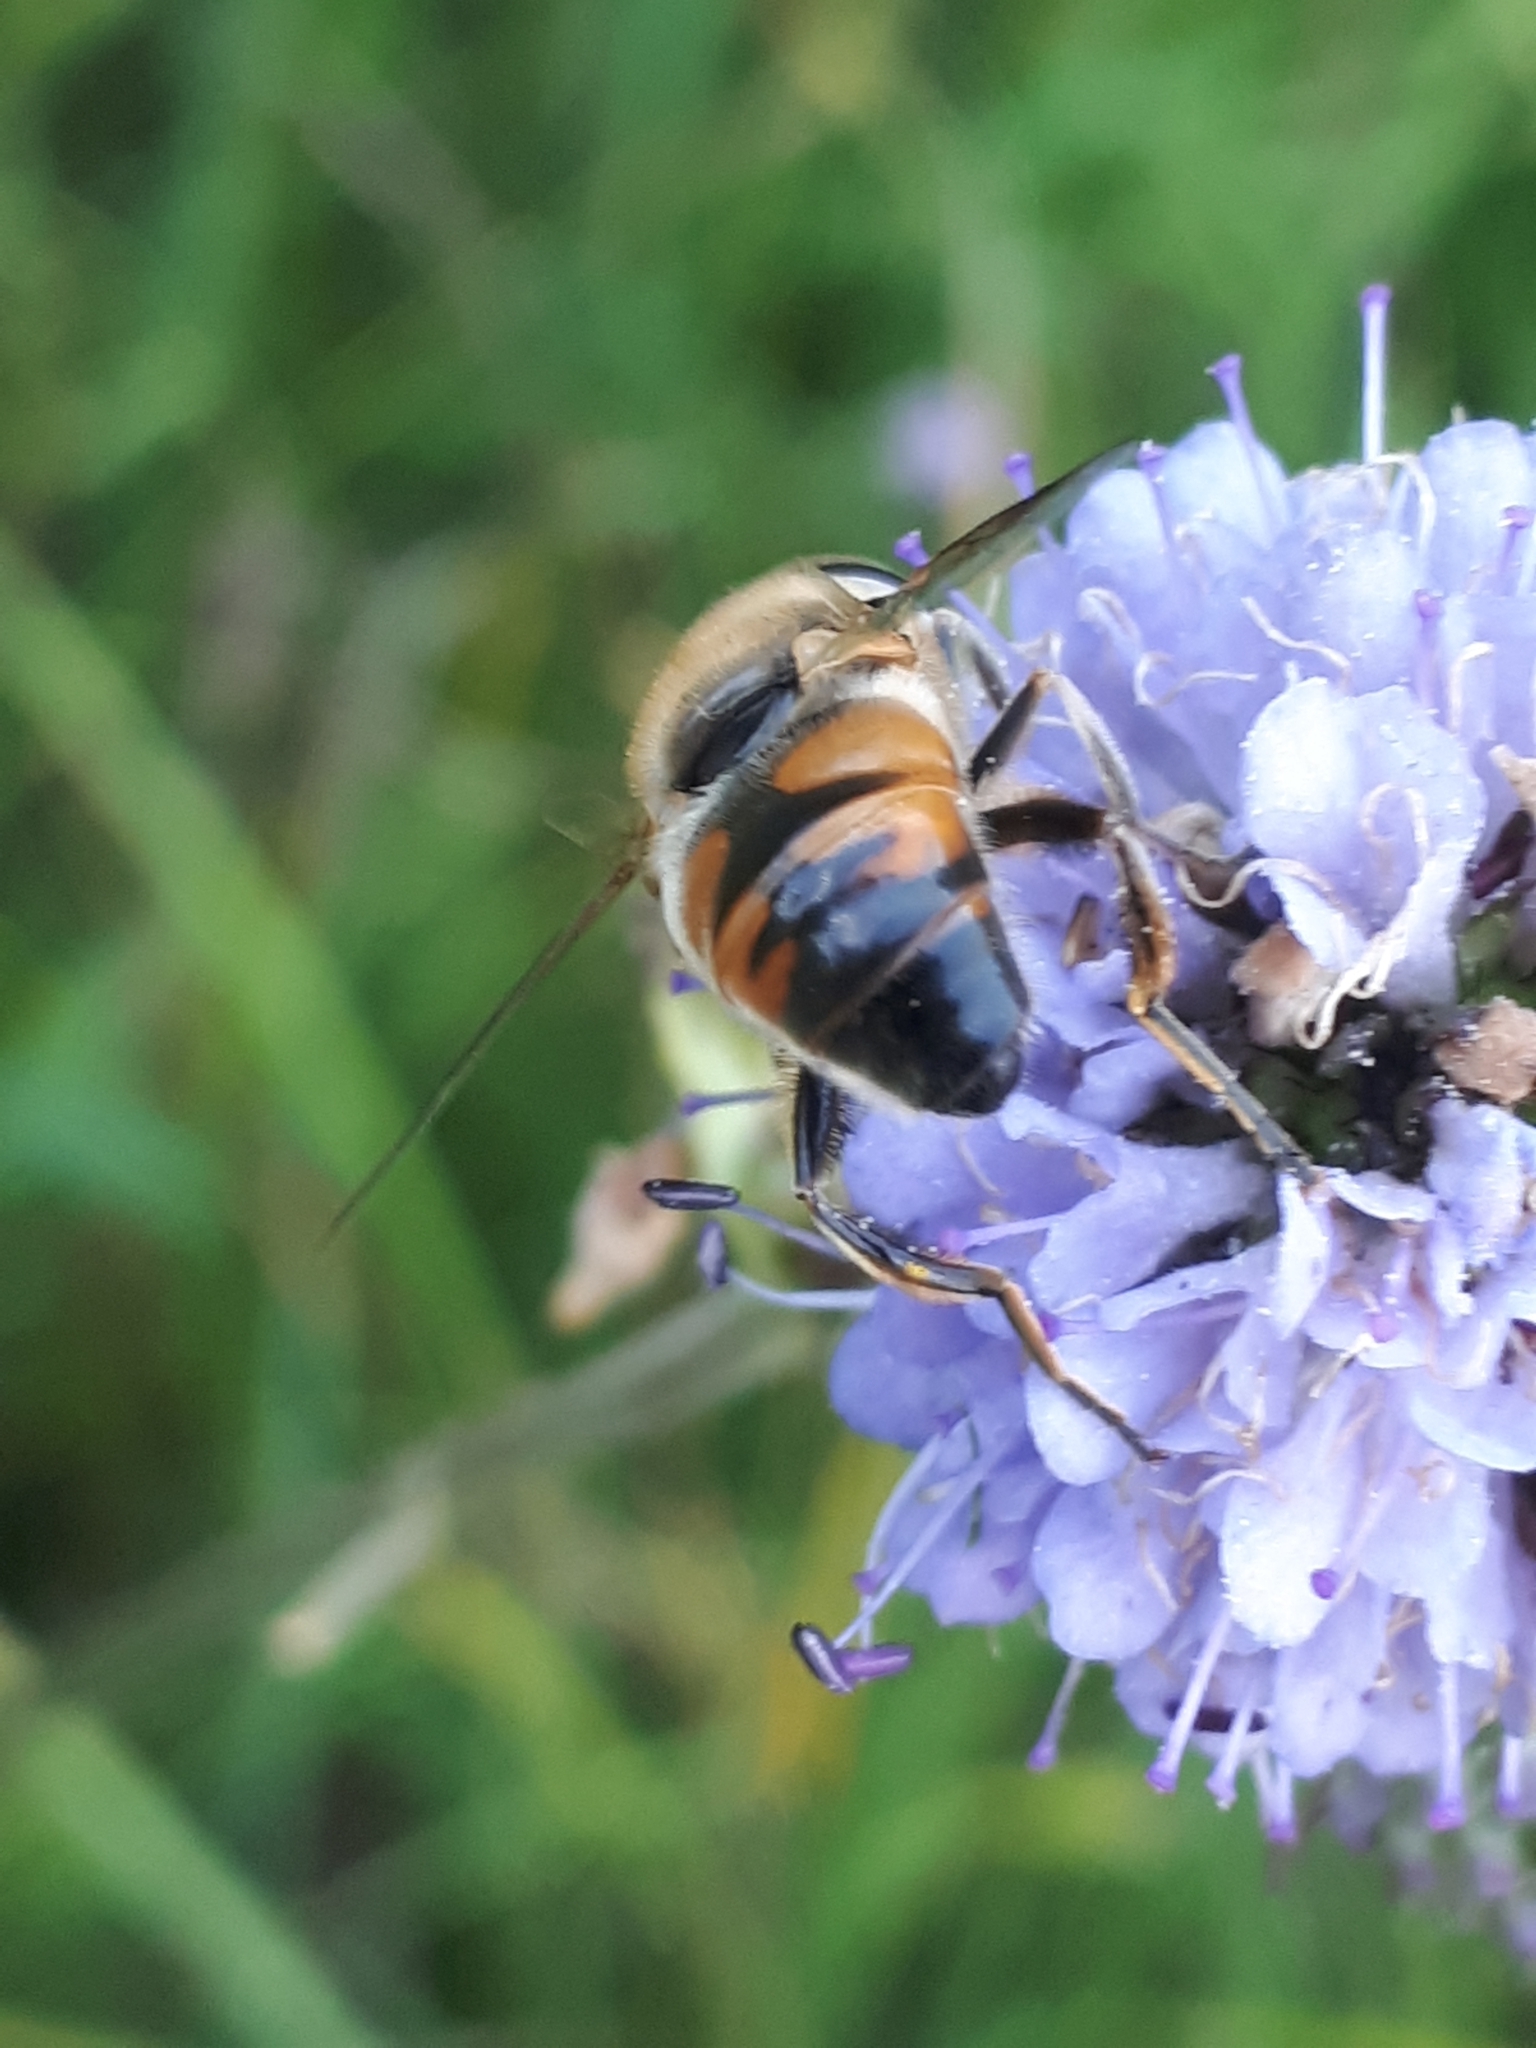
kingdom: Animalia
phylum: Arthropoda
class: Insecta
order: Diptera
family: Syrphidae
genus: Eristalis
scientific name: Eristalis tenax
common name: Drone fly
